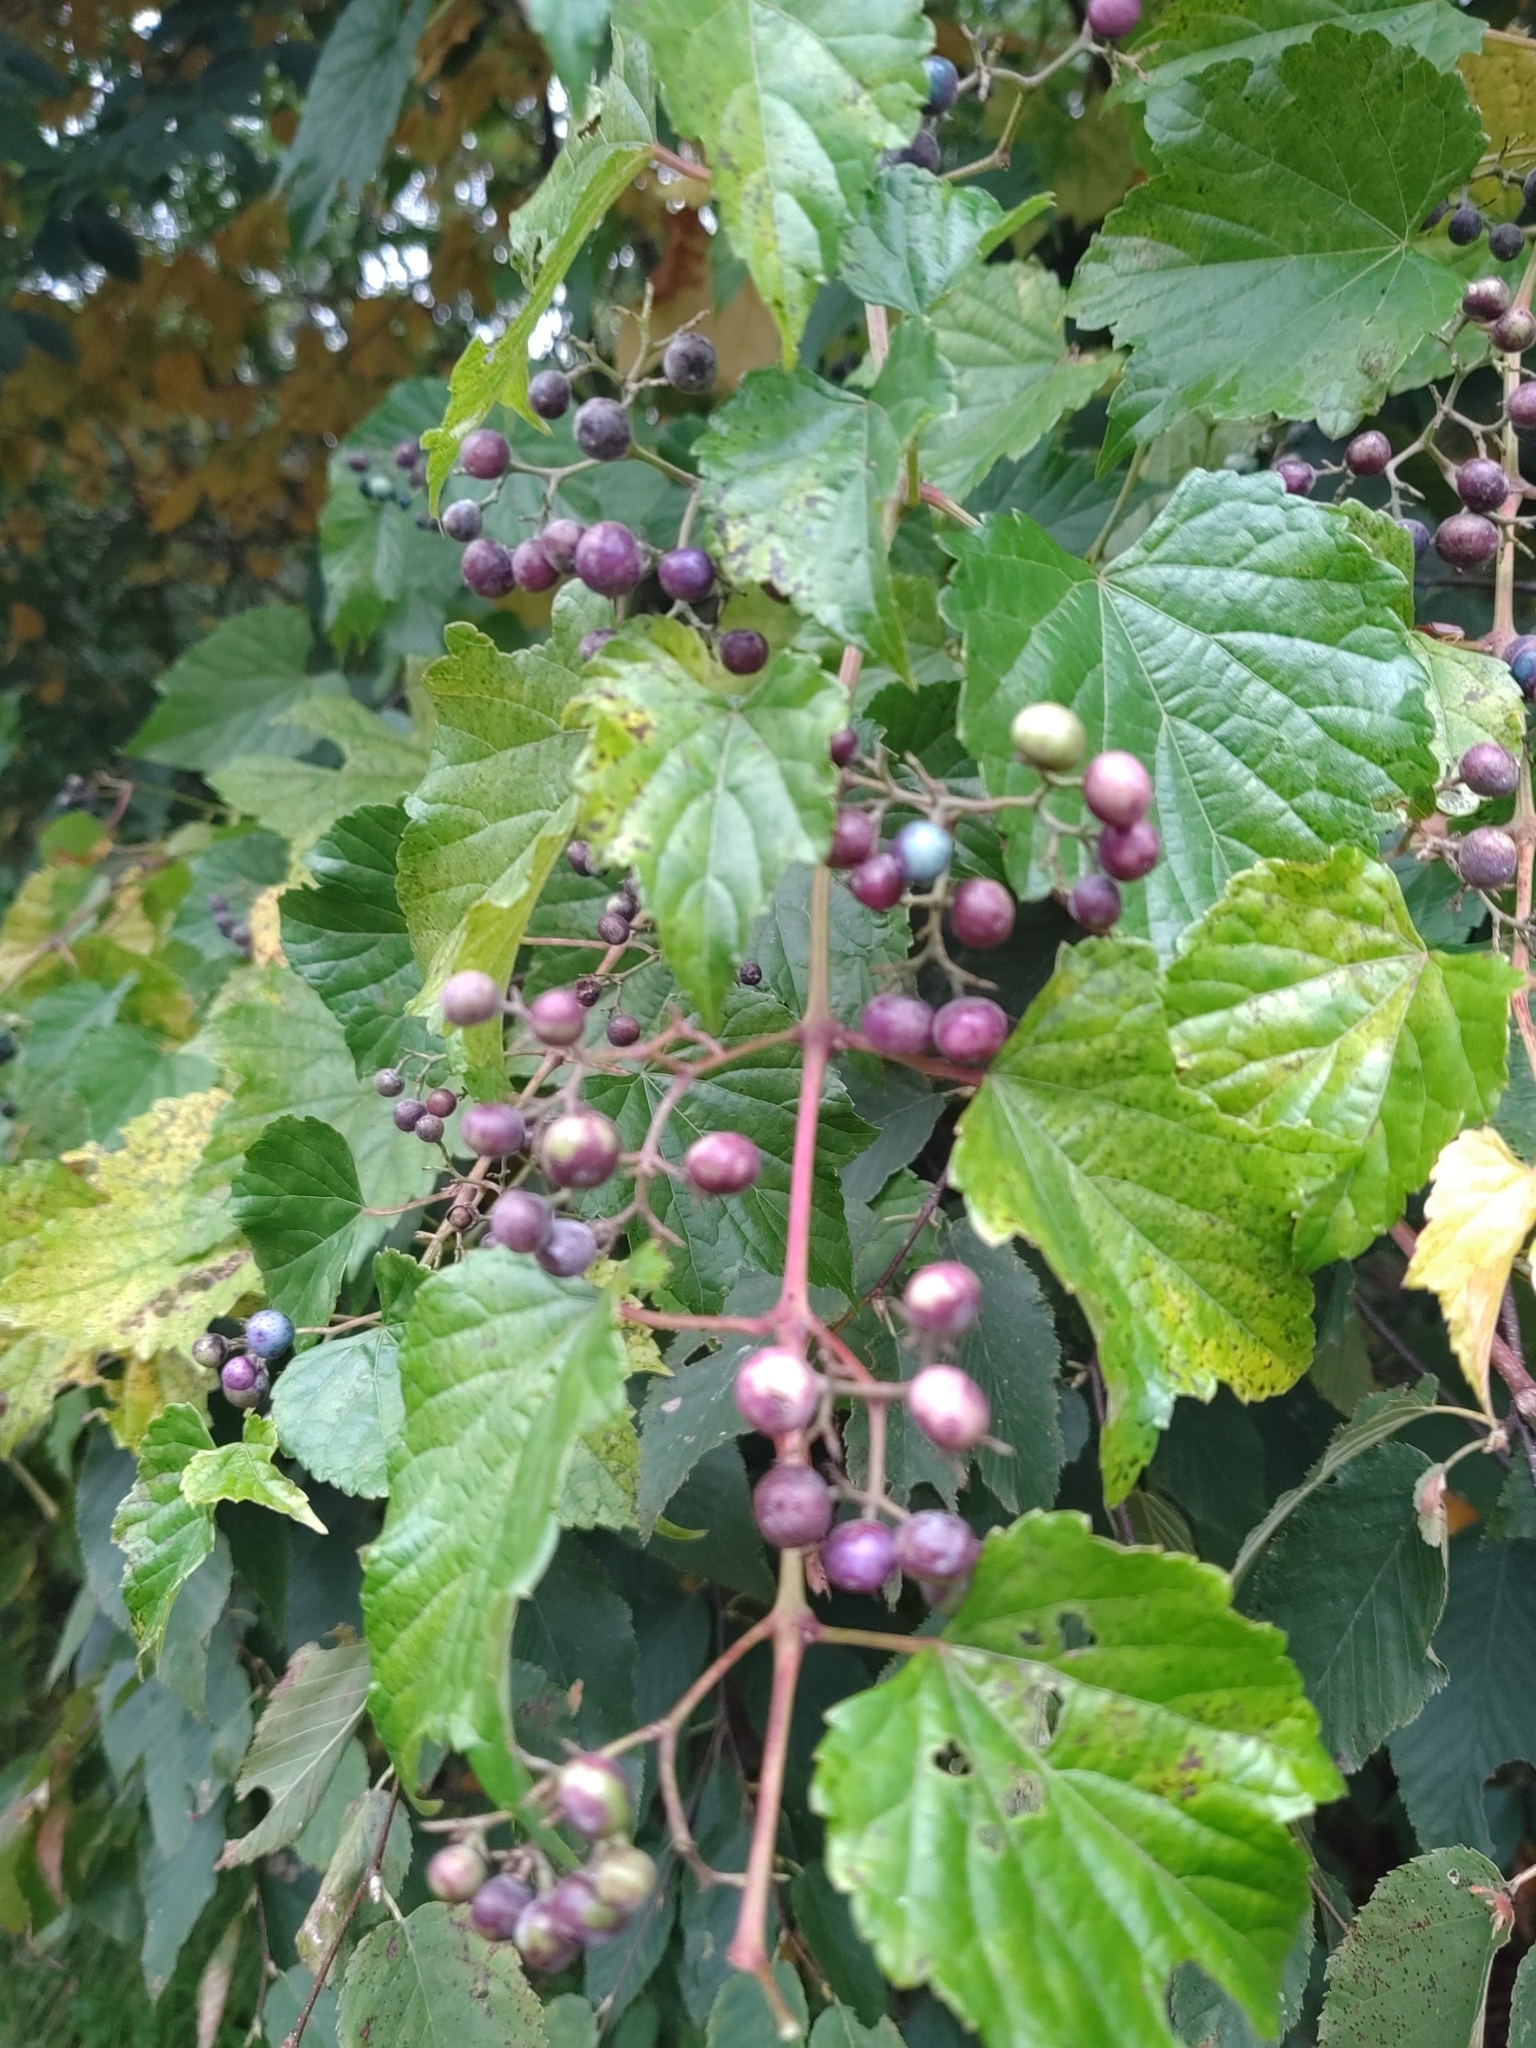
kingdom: Plantae
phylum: Tracheophyta
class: Magnoliopsida
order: Vitales
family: Vitaceae
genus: Ampelopsis
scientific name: Ampelopsis glandulosa
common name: Amur peppervine
